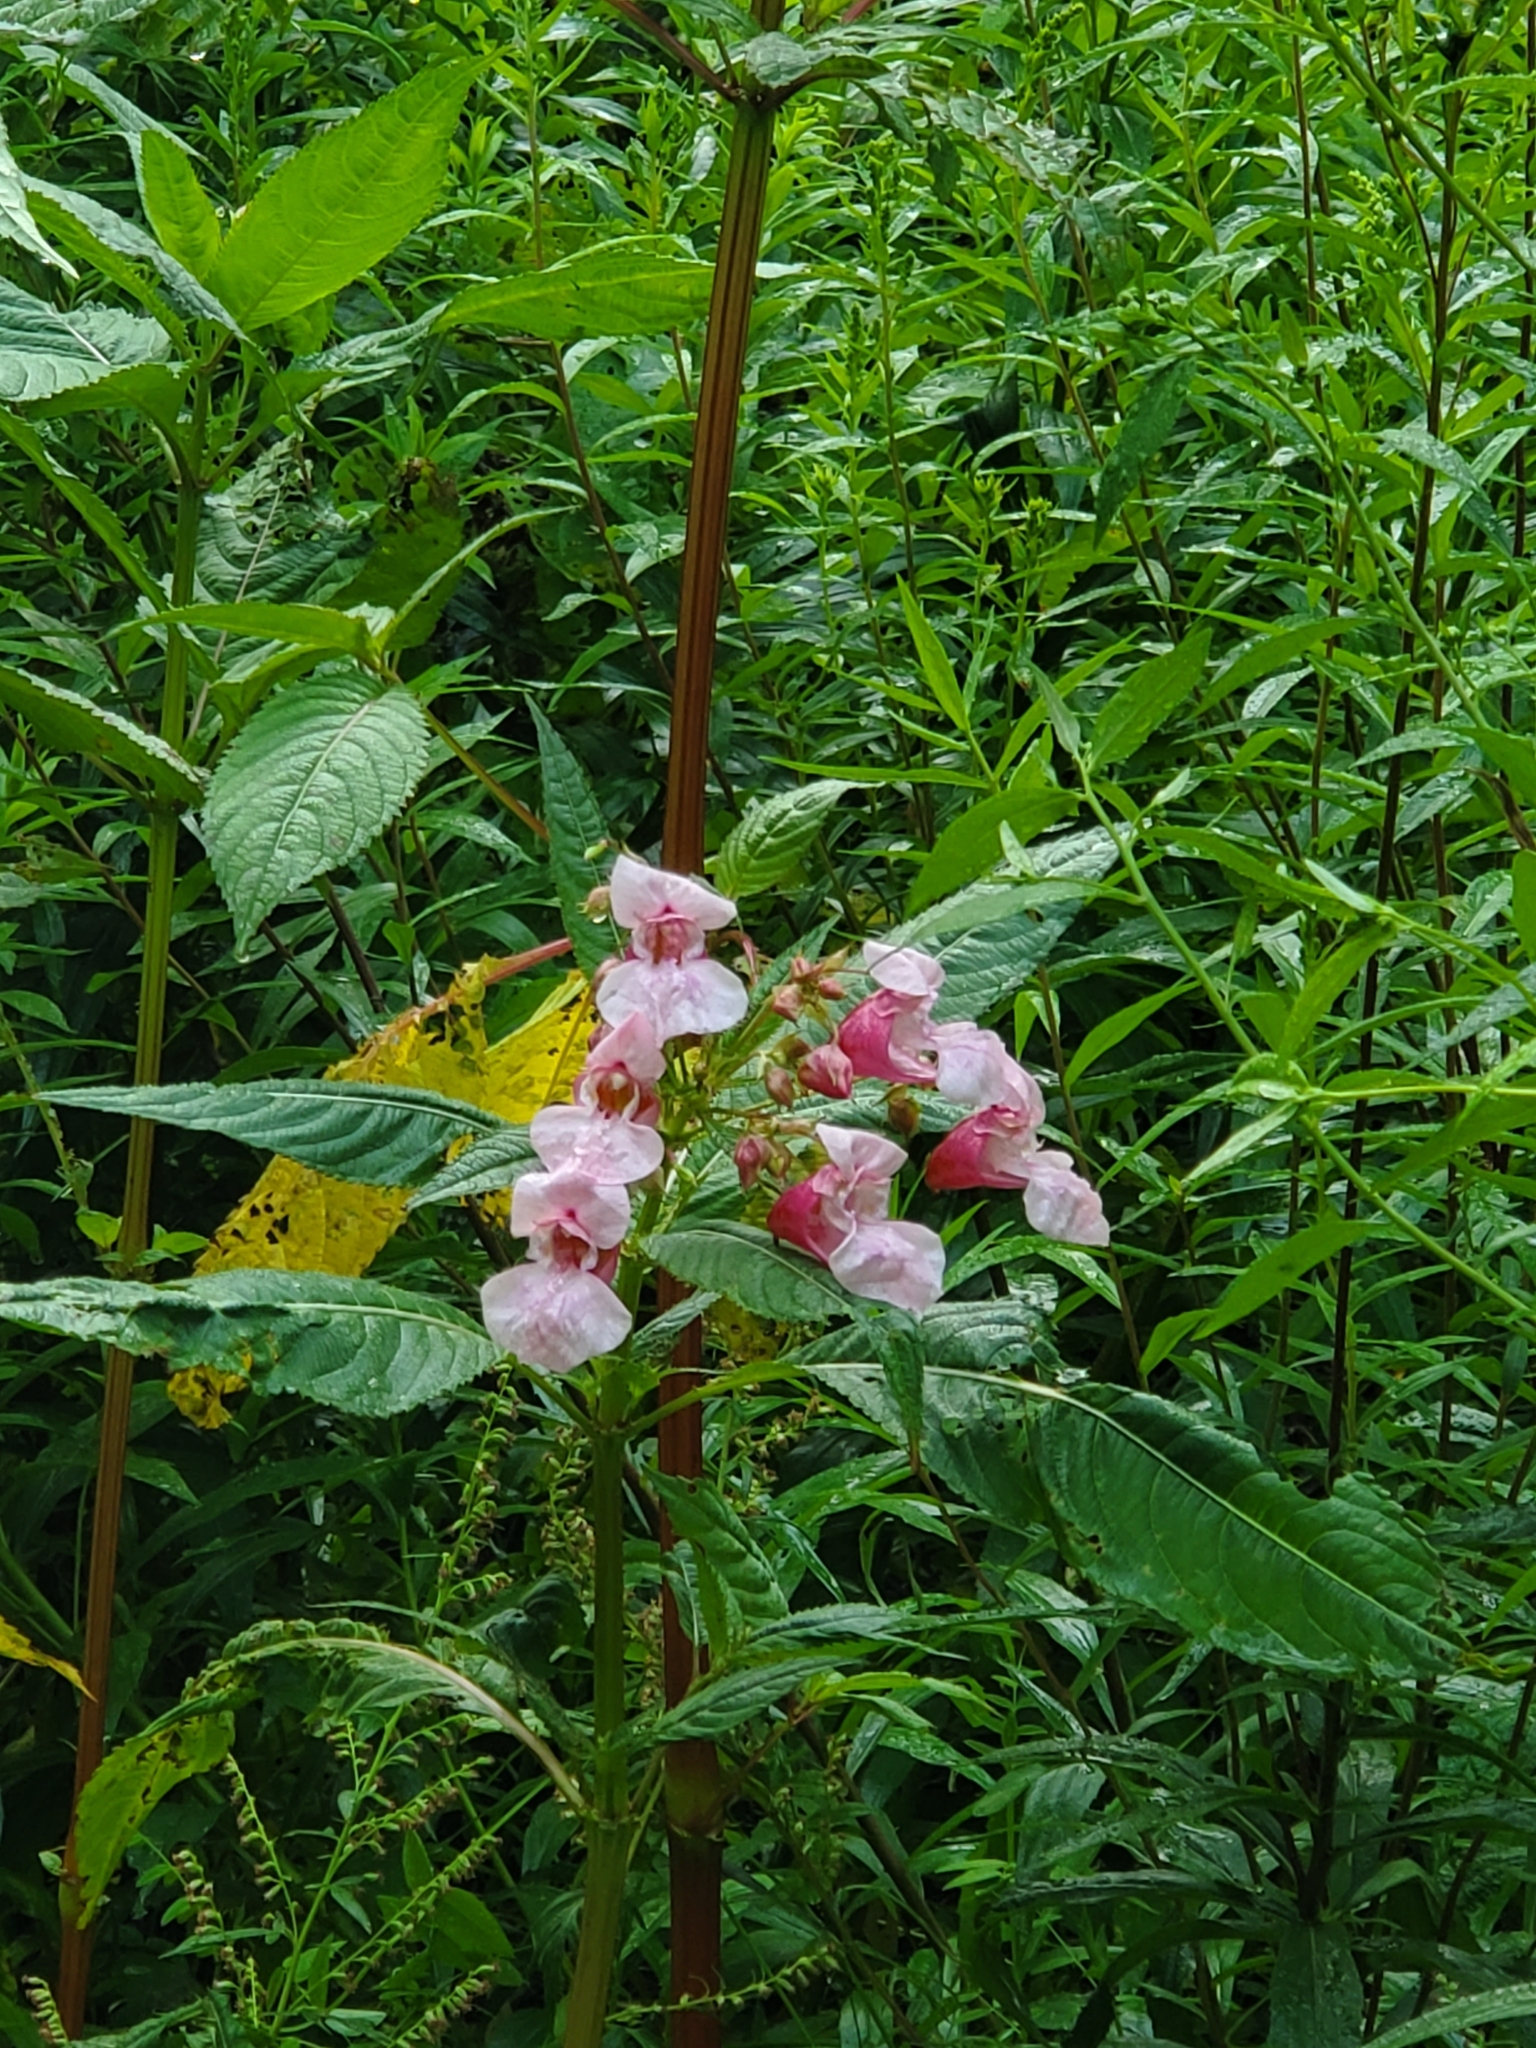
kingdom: Plantae
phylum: Tracheophyta
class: Magnoliopsida
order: Ericales
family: Balsaminaceae
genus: Impatiens
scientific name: Impatiens glandulifera
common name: Himalayan balsam
